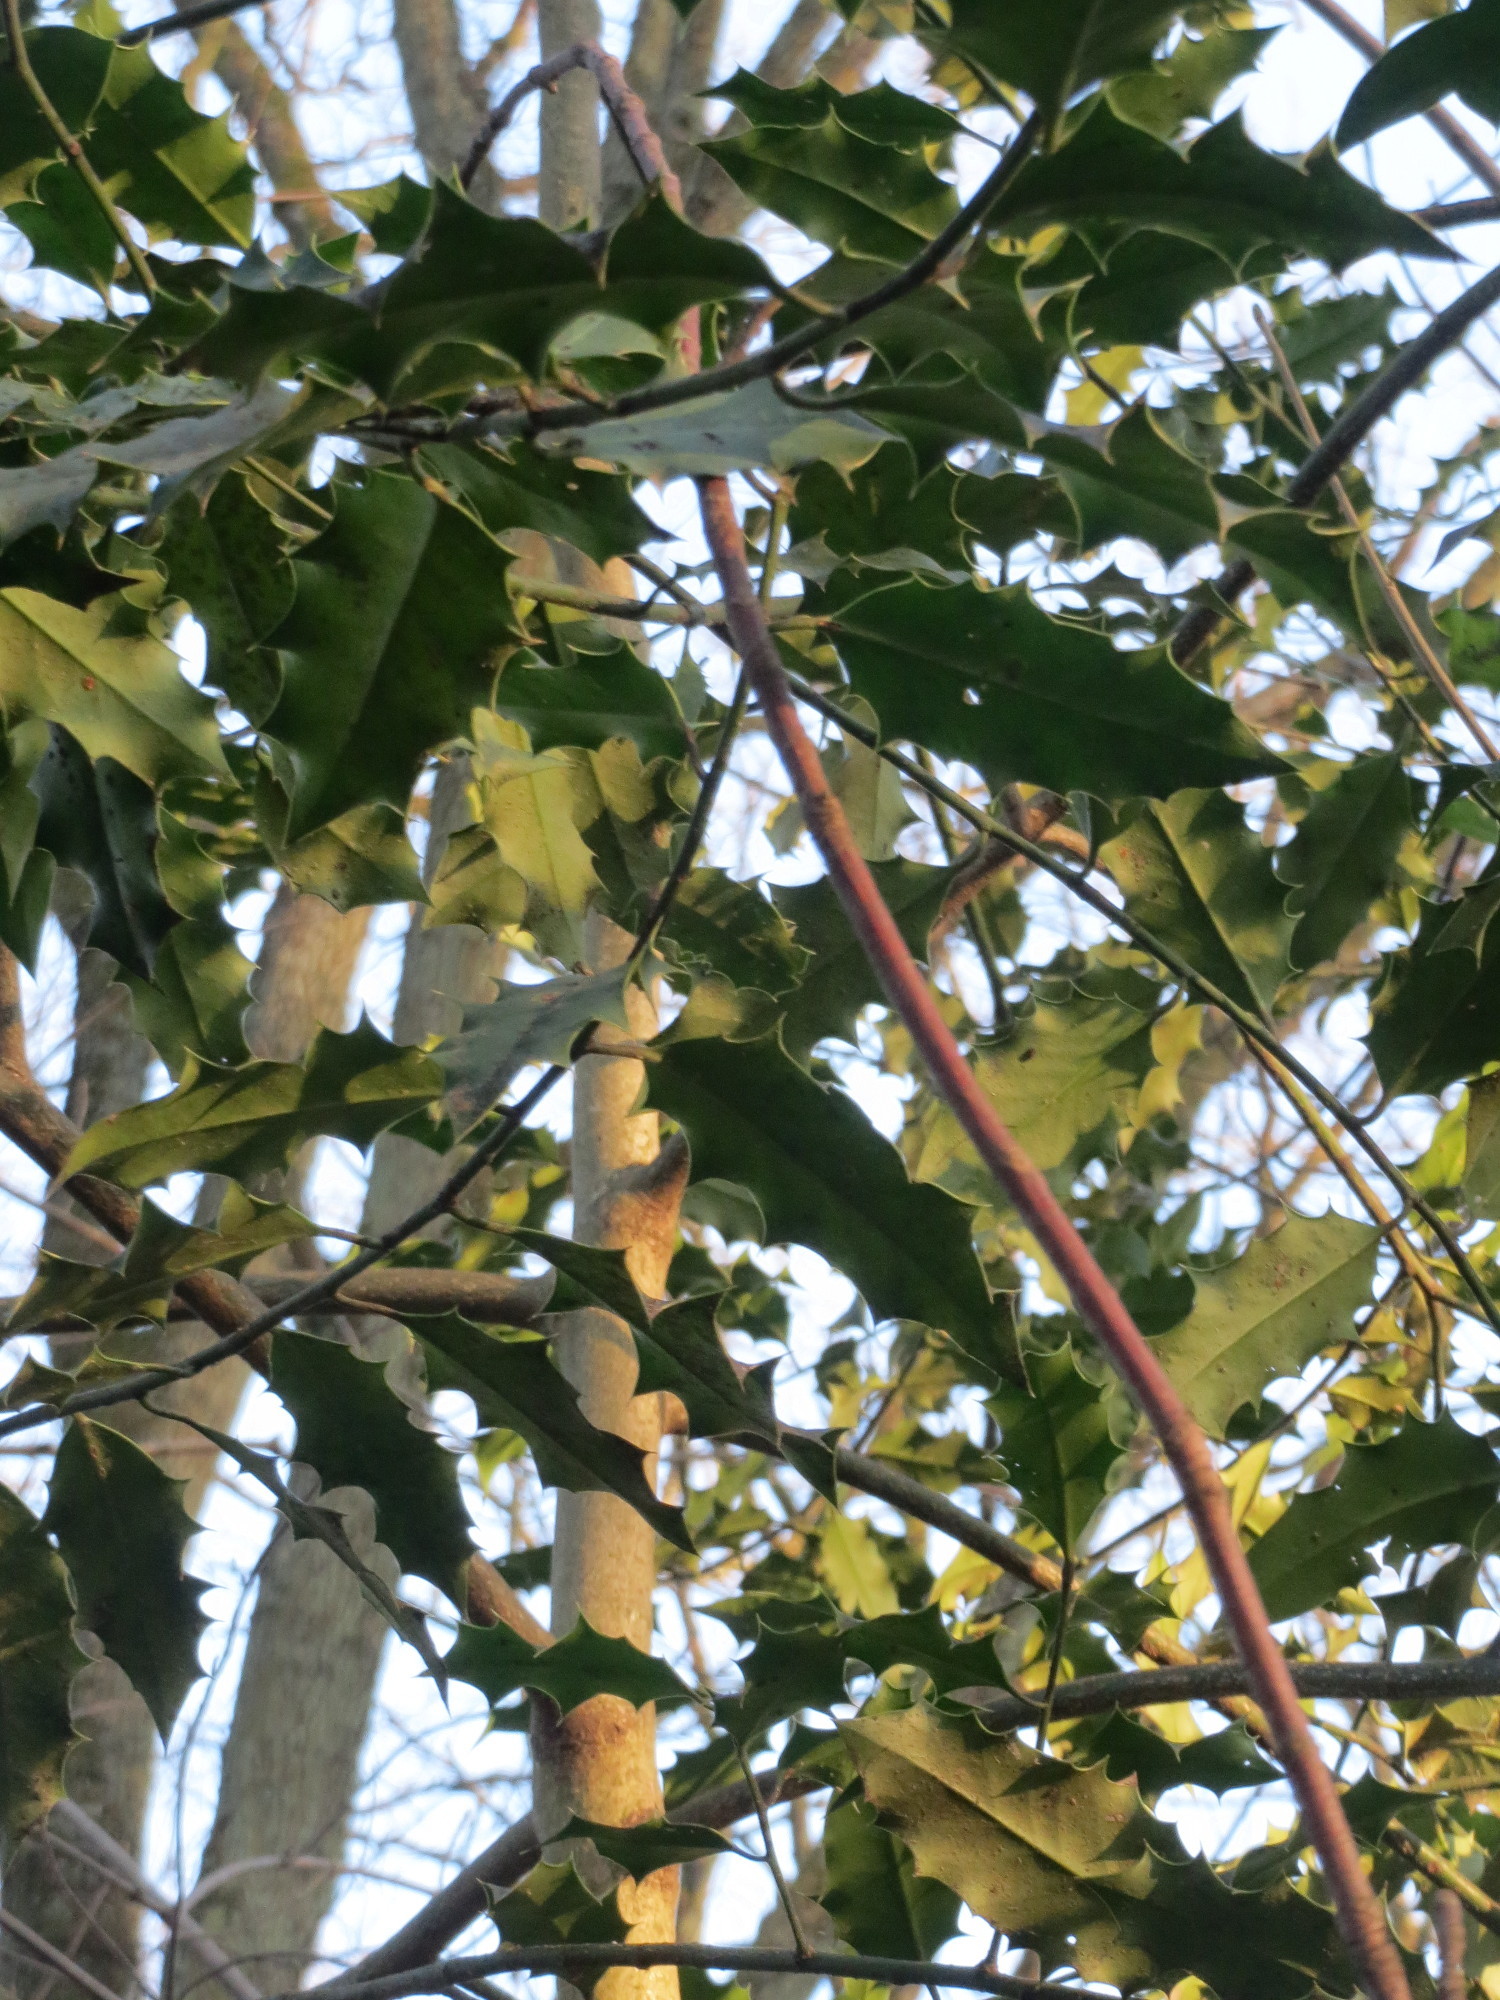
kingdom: Plantae
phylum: Tracheophyta
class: Magnoliopsida
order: Aquifoliales
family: Aquifoliaceae
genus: Ilex
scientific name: Ilex aquifolium
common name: English holly
